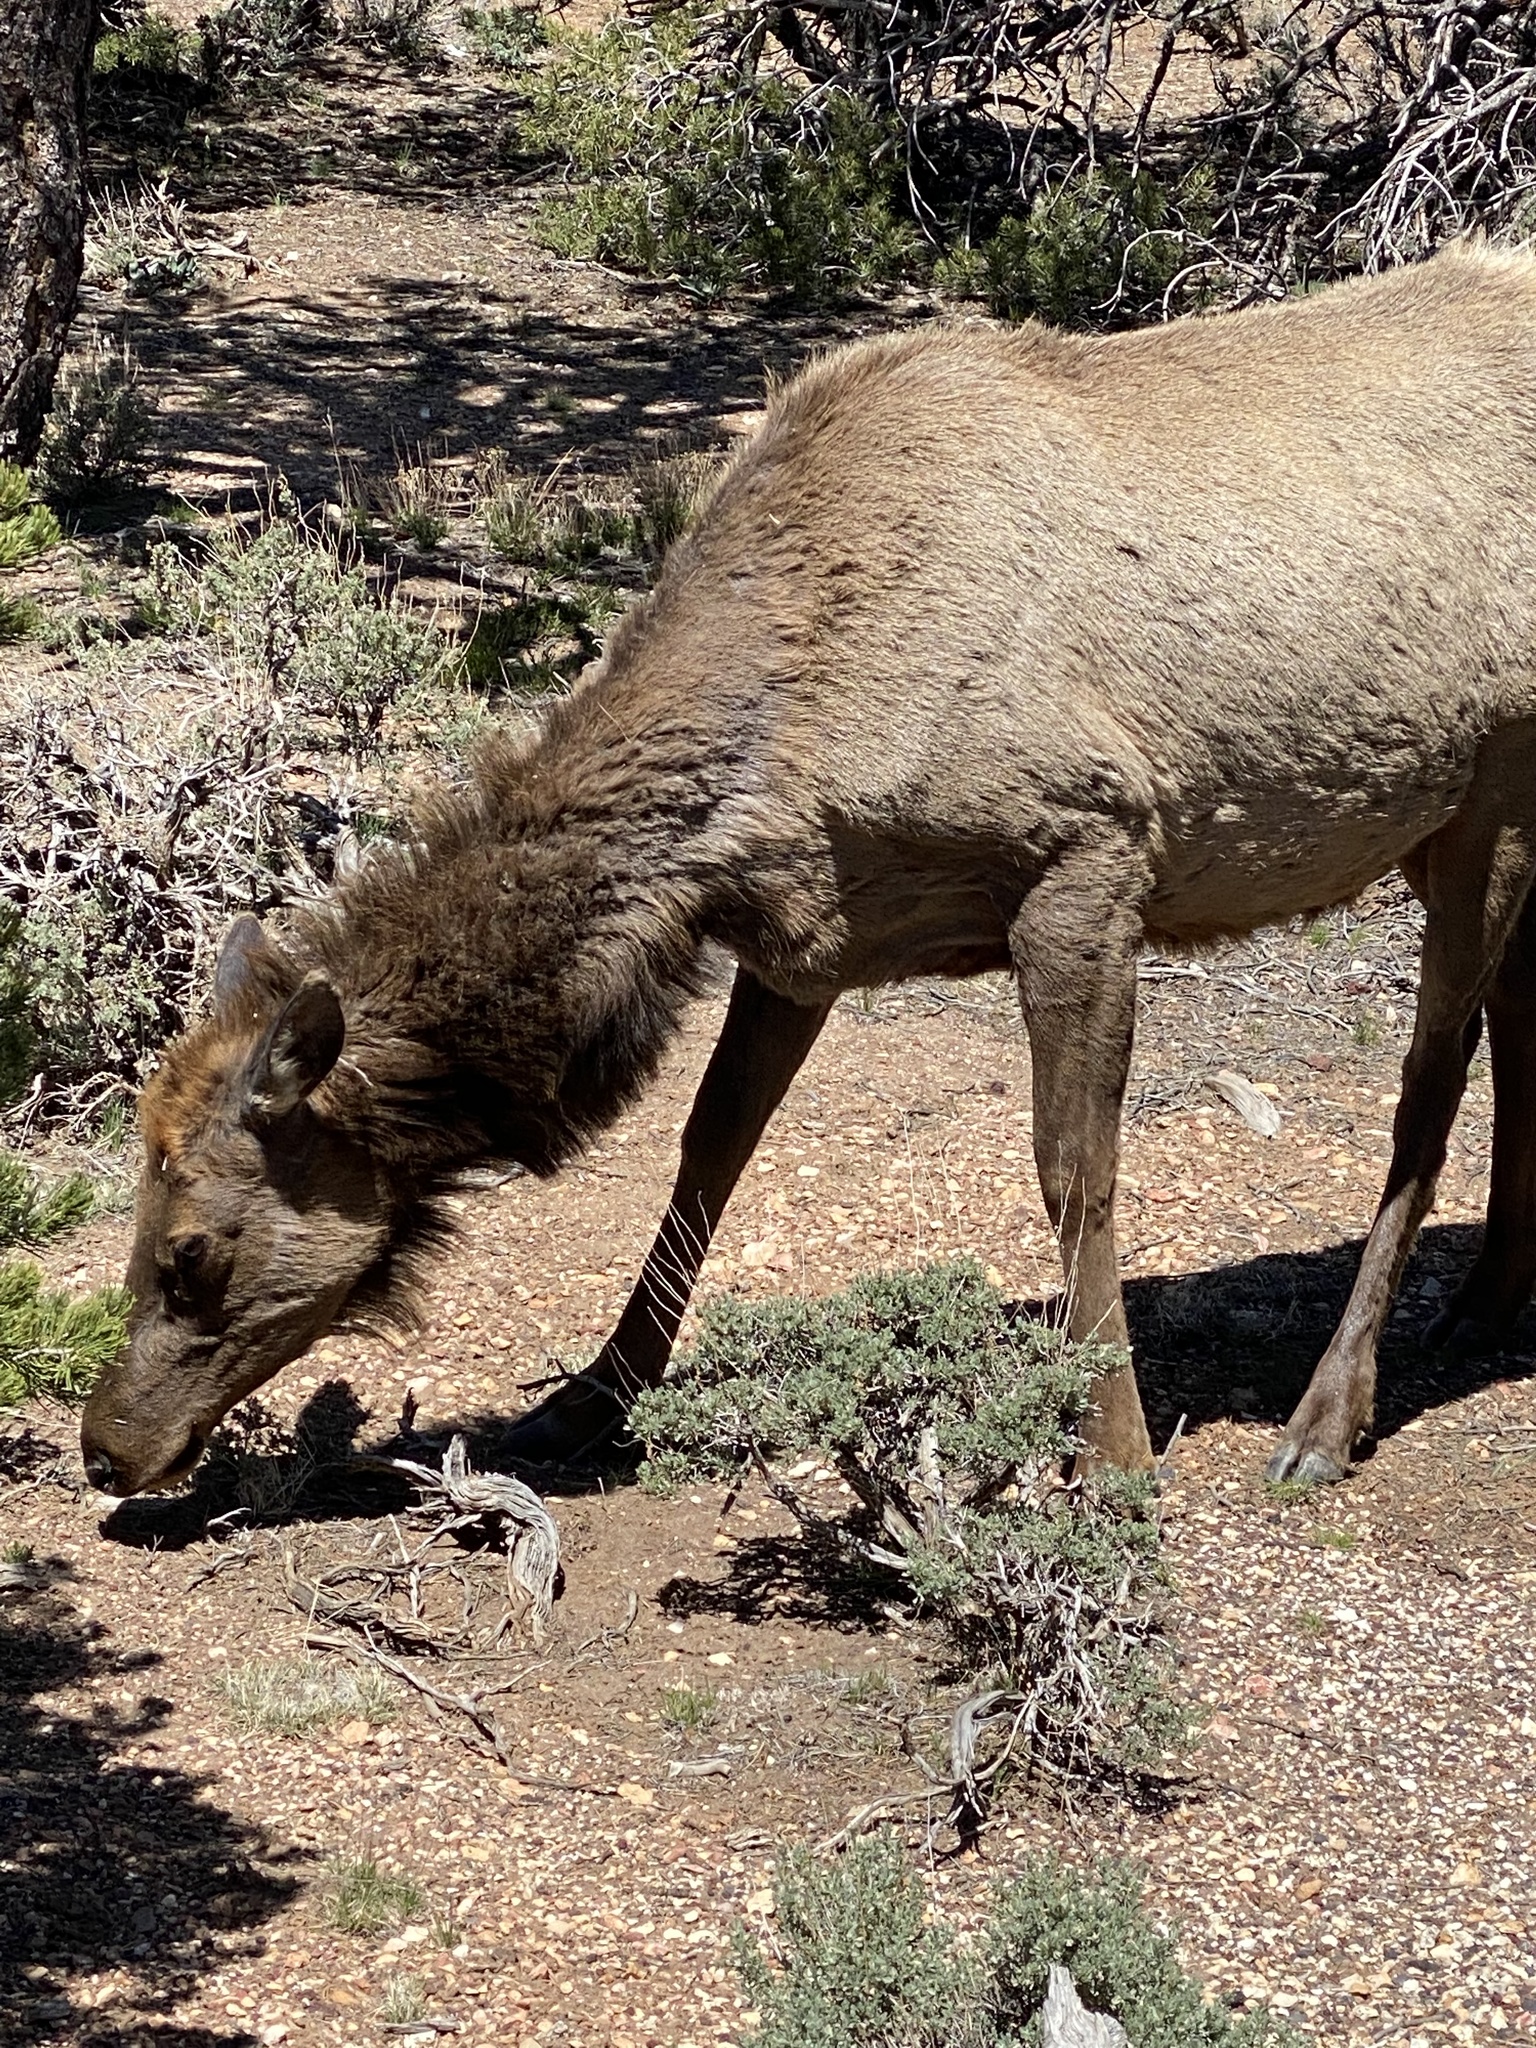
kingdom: Animalia
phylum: Chordata
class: Mammalia
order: Artiodactyla
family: Cervidae
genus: Cervus
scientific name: Cervus elaphus
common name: Red deer
